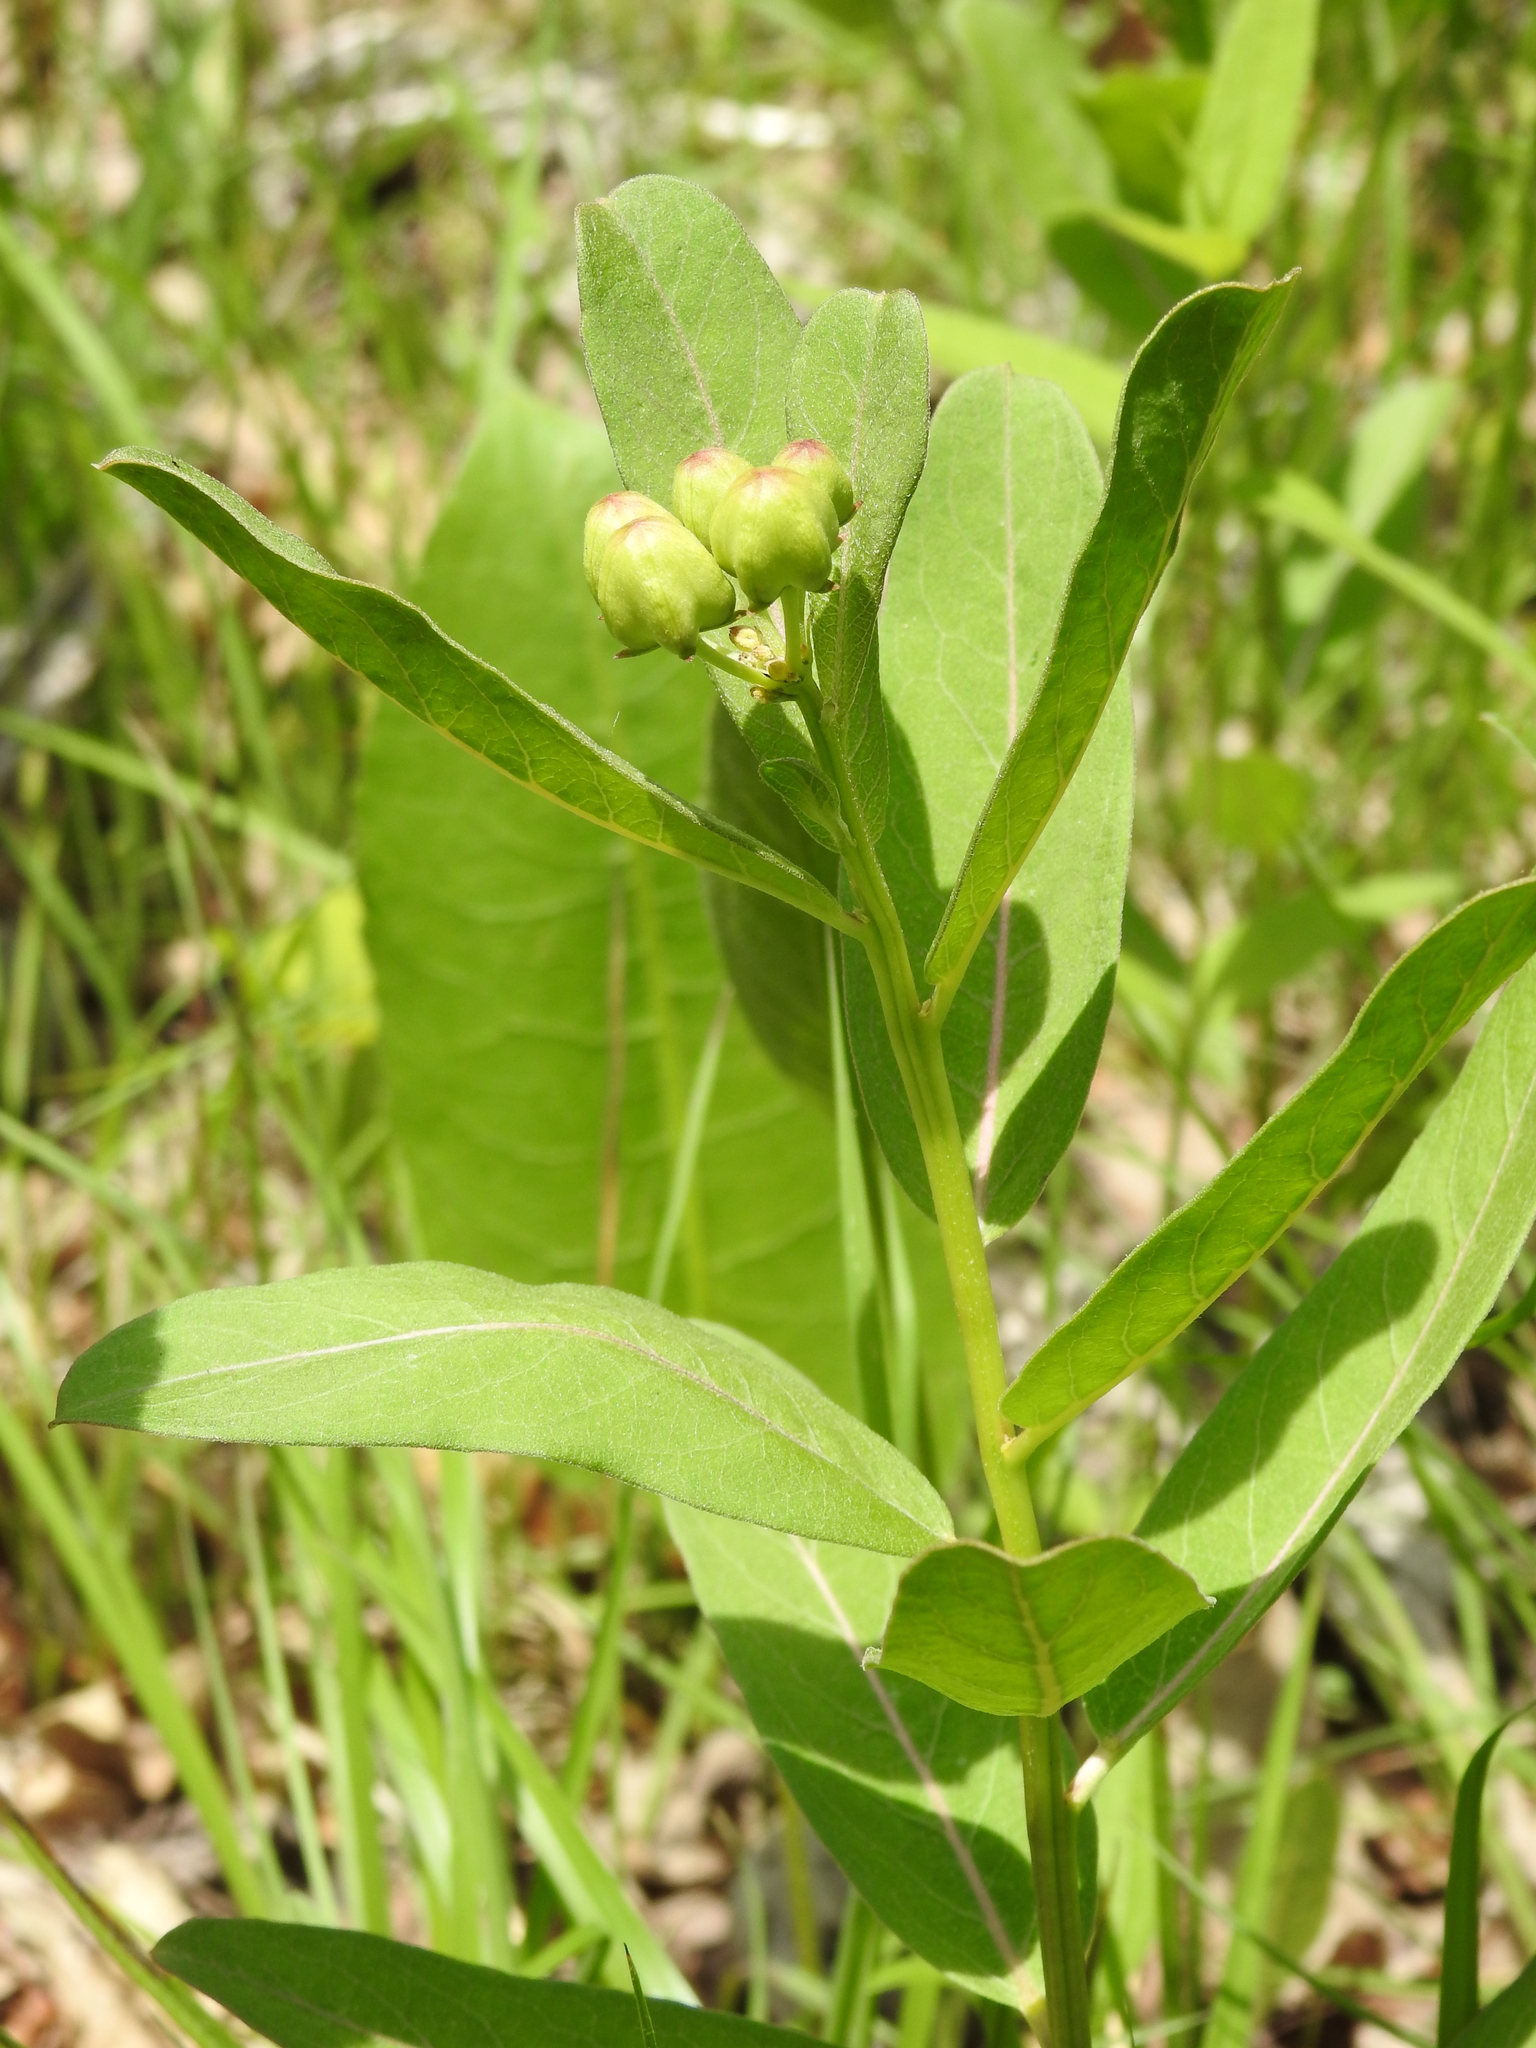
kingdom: Plantae
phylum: Tracheophyta
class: Magnoliopsida
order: Gentianales
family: Apocynaceae
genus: Asclepias
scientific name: Asclepias viridis
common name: Antelope-horns
